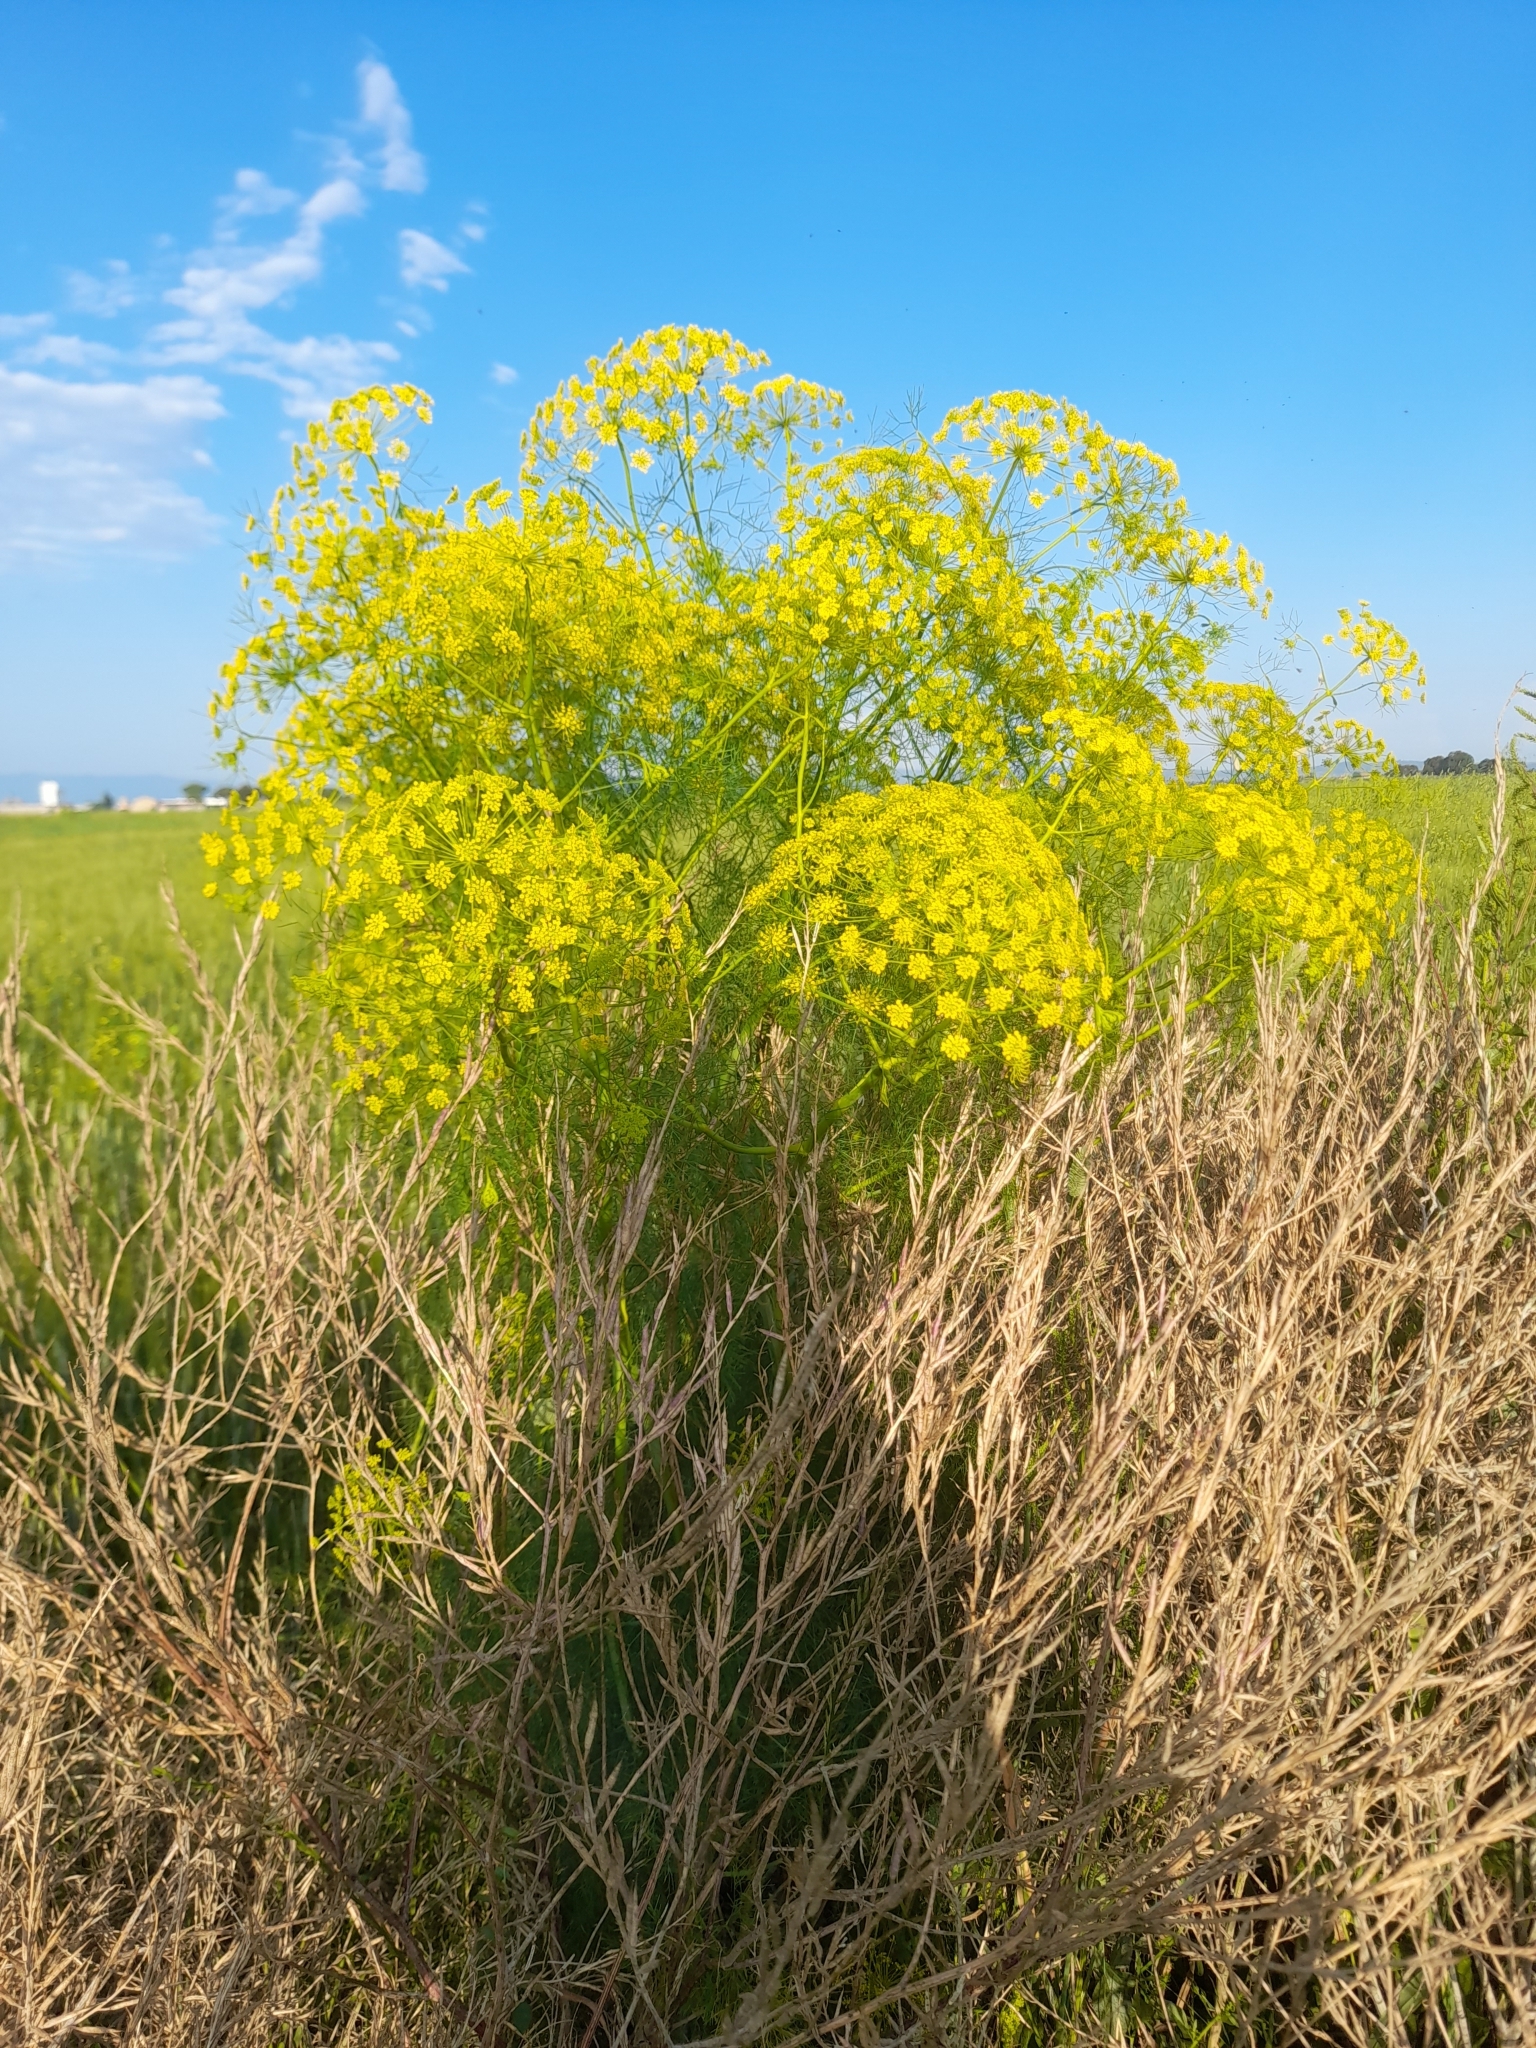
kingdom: Plantae
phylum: Tracheophyta
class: Magnoliopsida
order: Apiales
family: Apiaceae
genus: Anethum
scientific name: Anethum ridolfia
